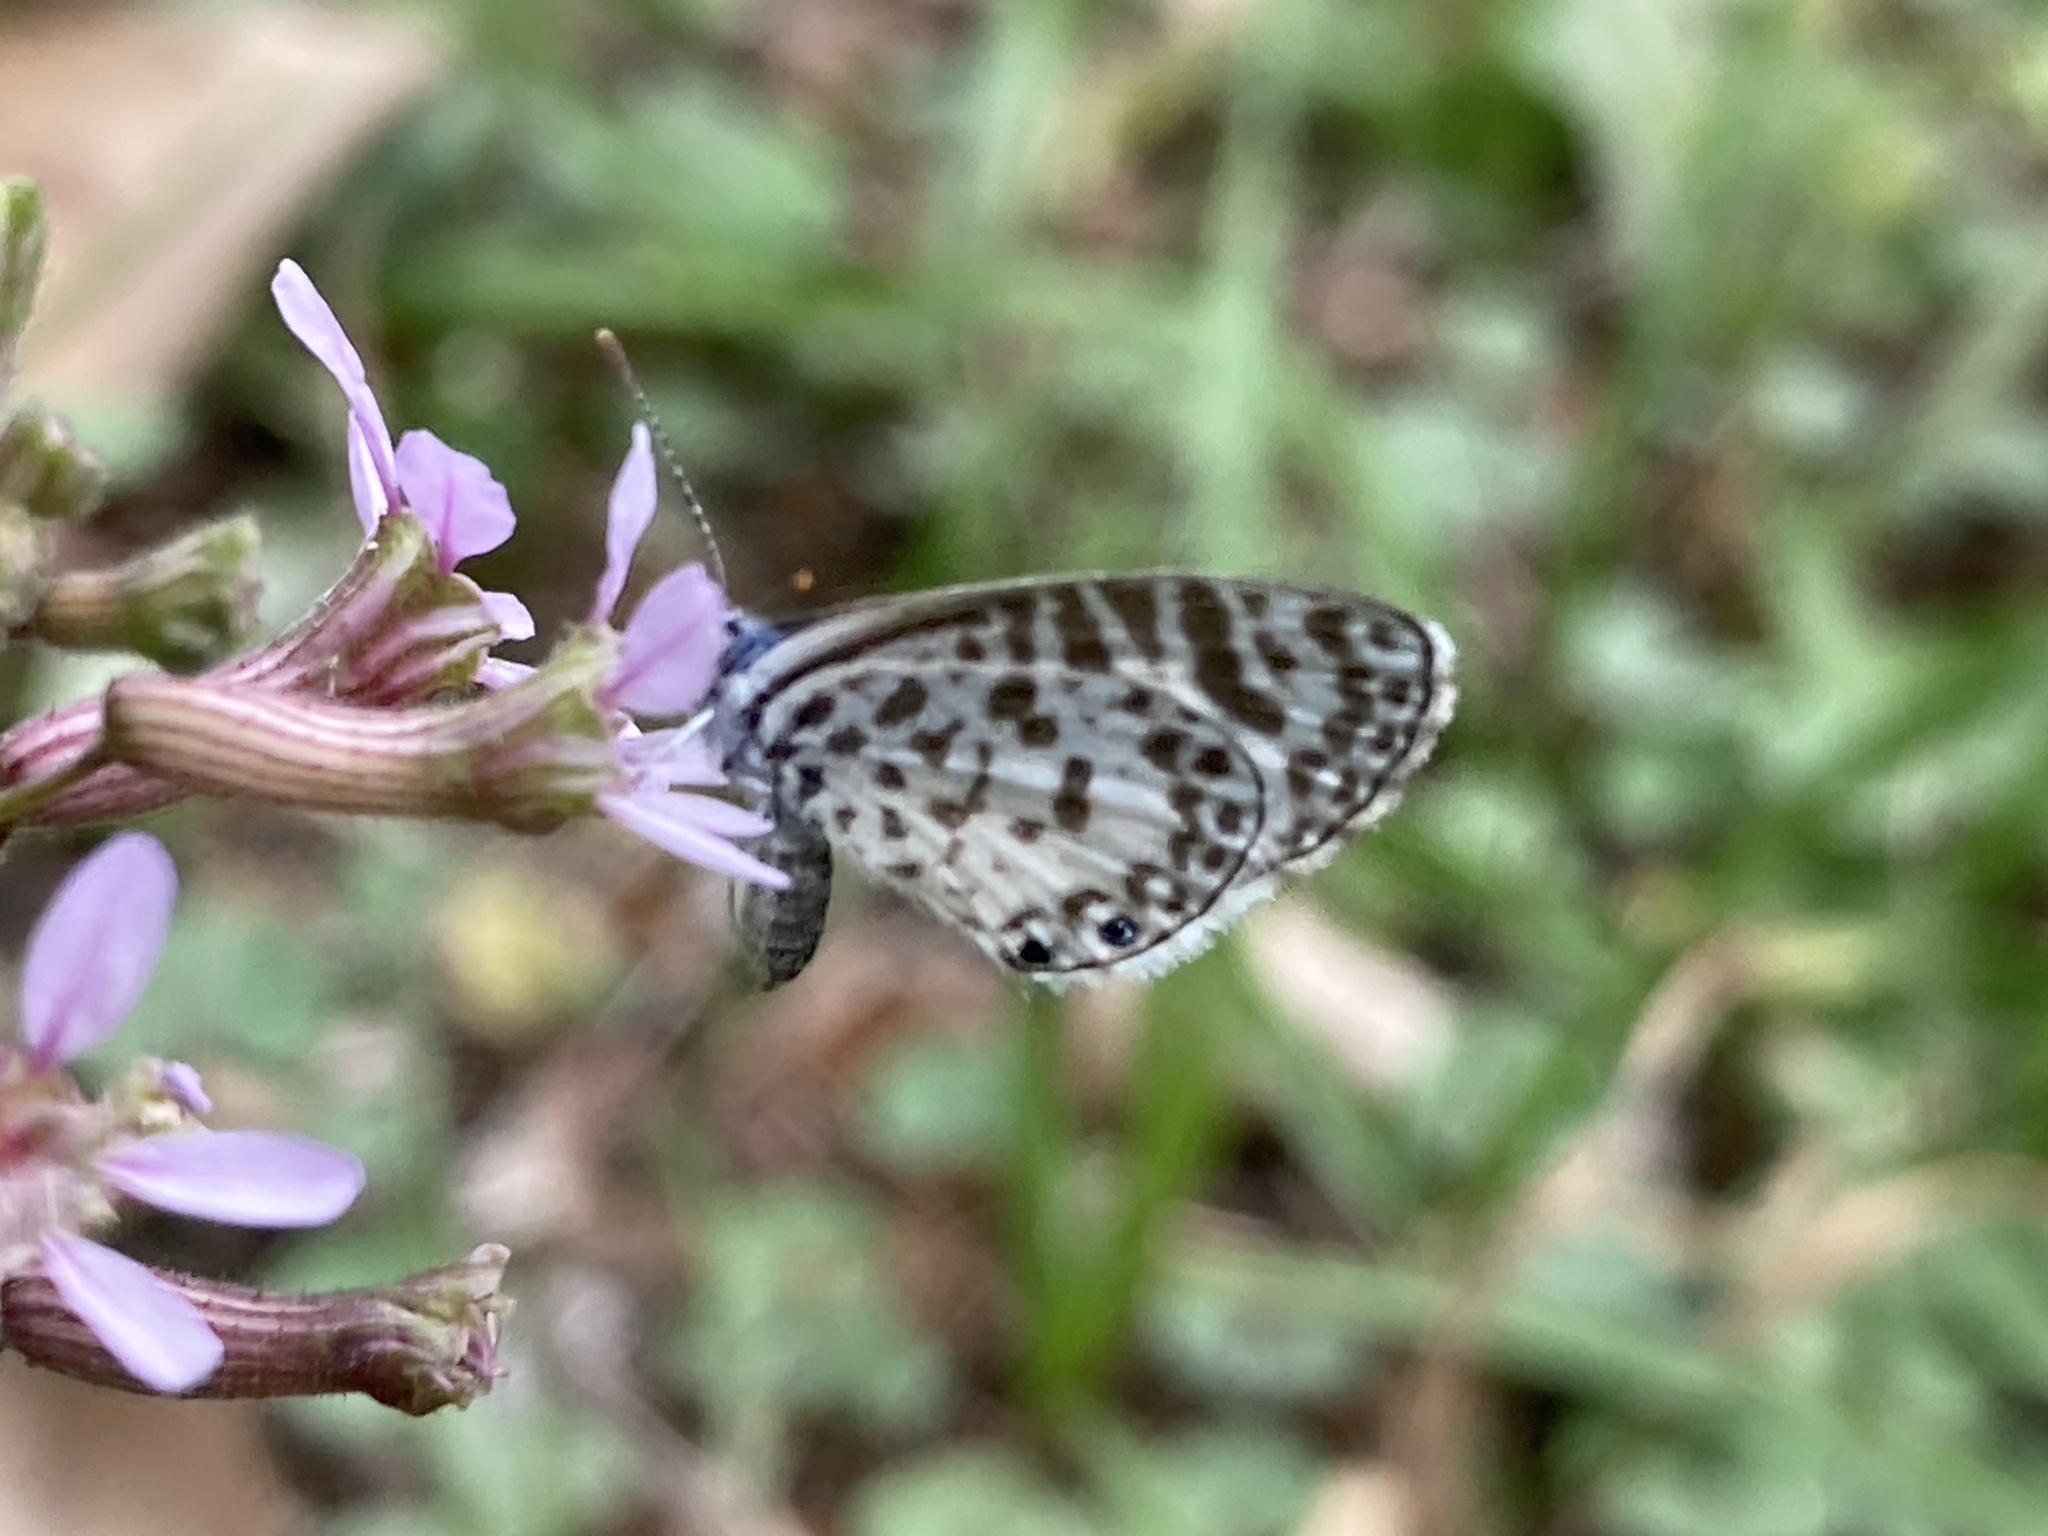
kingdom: Animalia
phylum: Arthropoda
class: Insecta
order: Lepidoptera
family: Lycaenidae
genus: Leptotes
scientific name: Leptotes cassius
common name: Cassius blue
